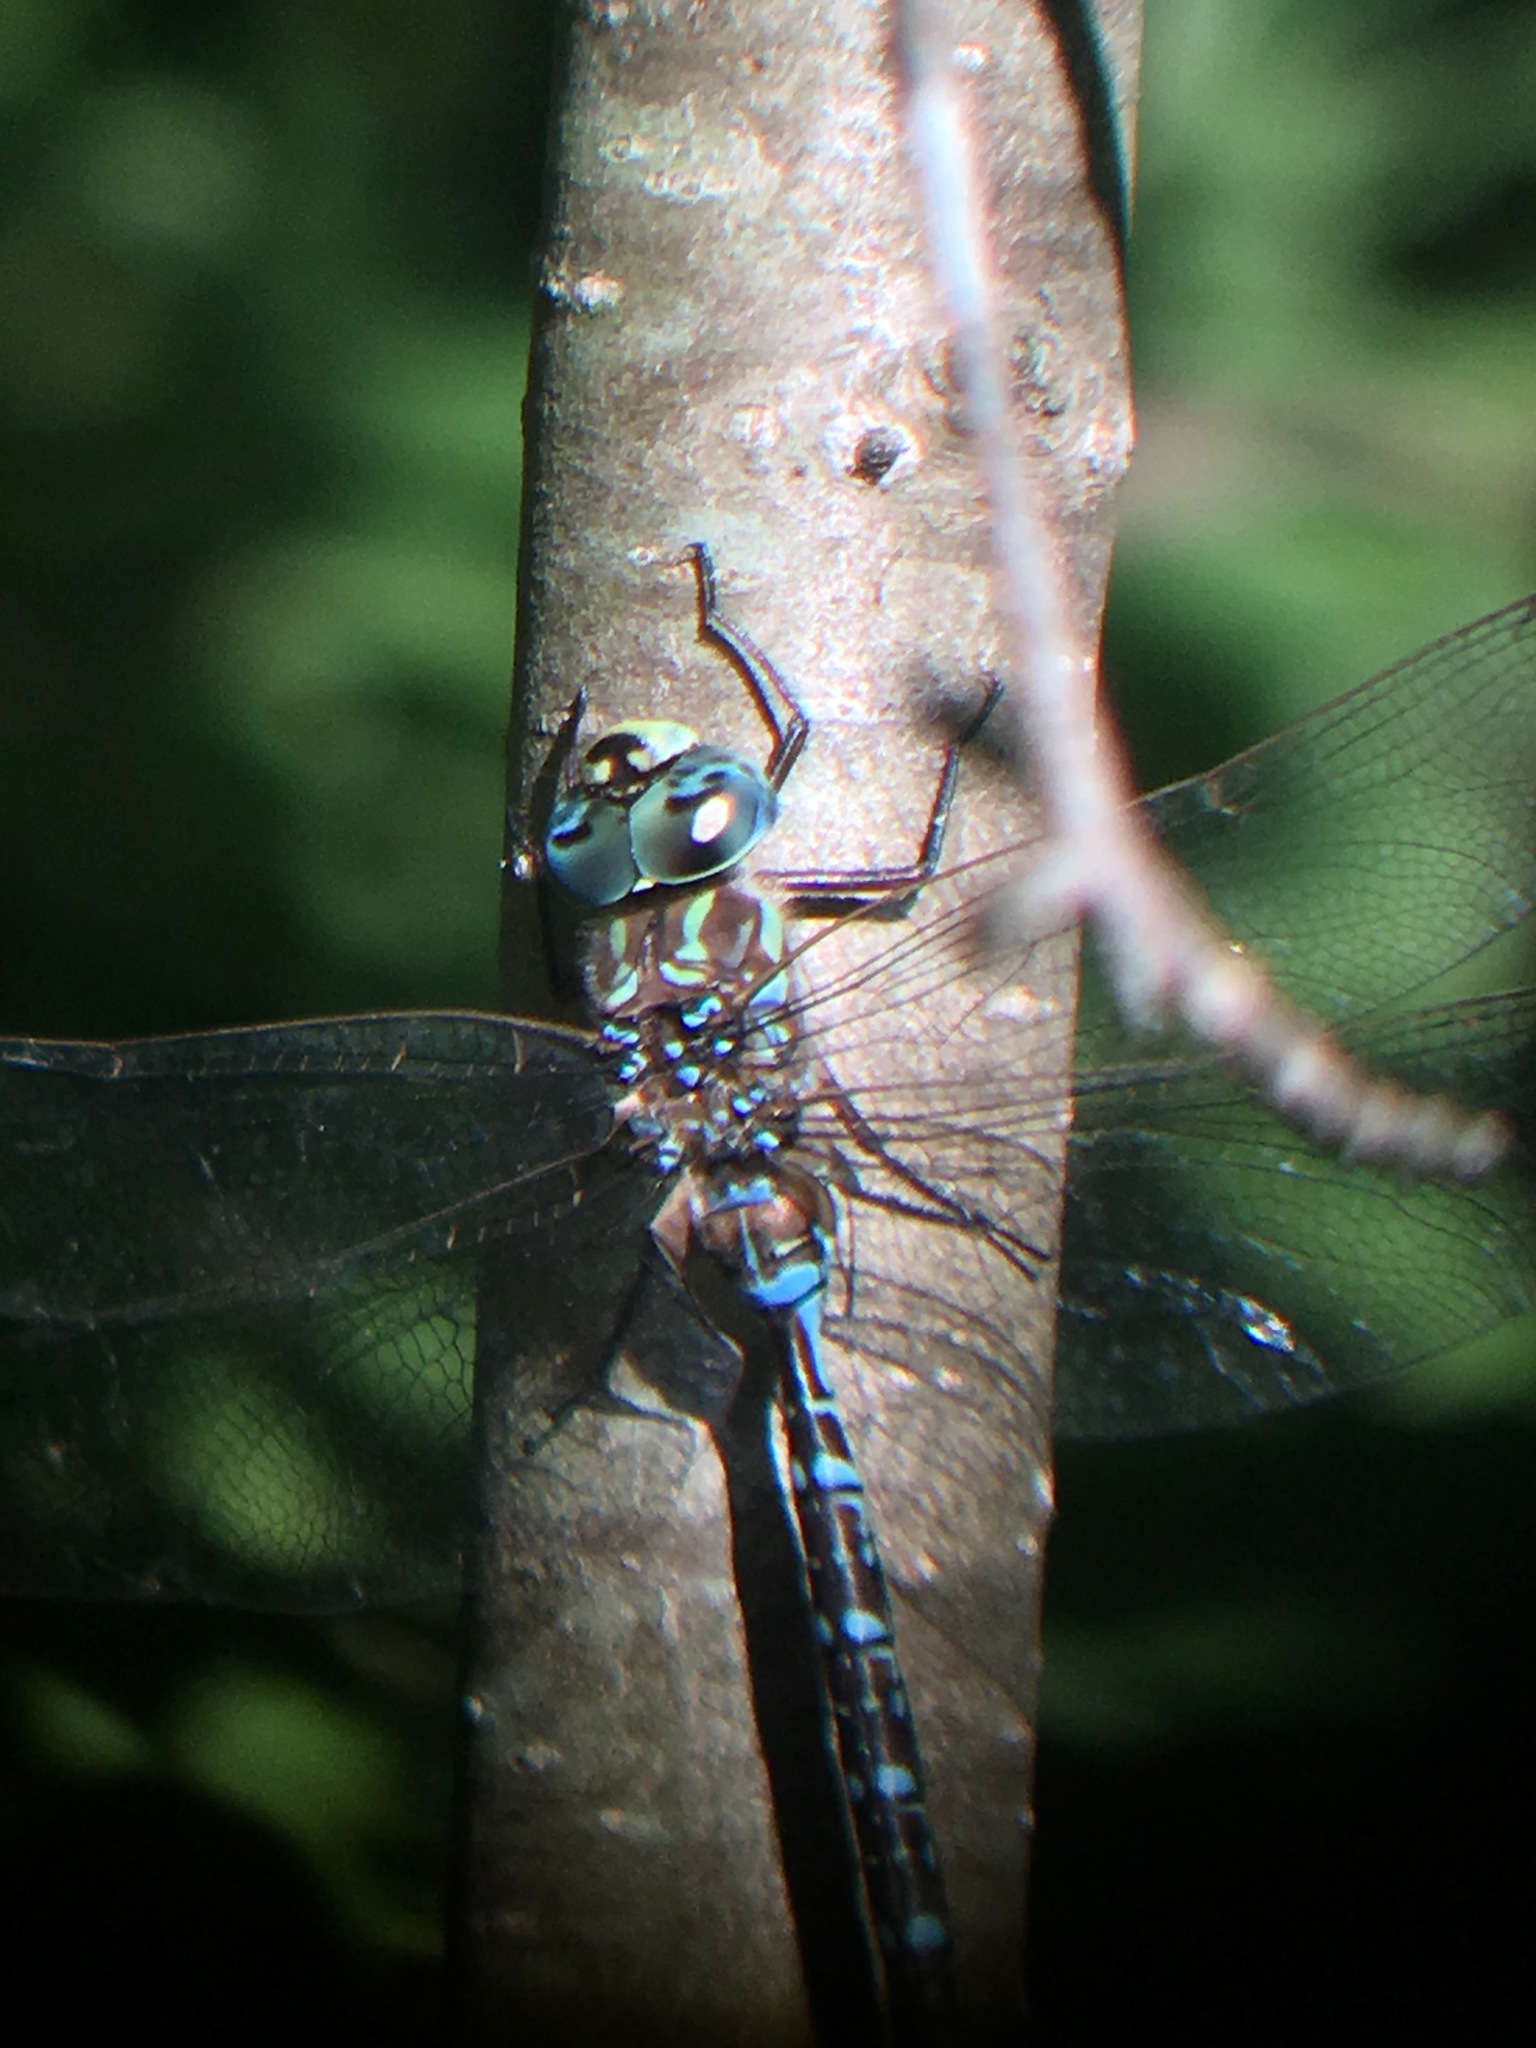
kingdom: Animalia
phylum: Arthropoda
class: Insecta
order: Odonata
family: Aeshnidae
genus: Aeshna
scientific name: Aeshna
